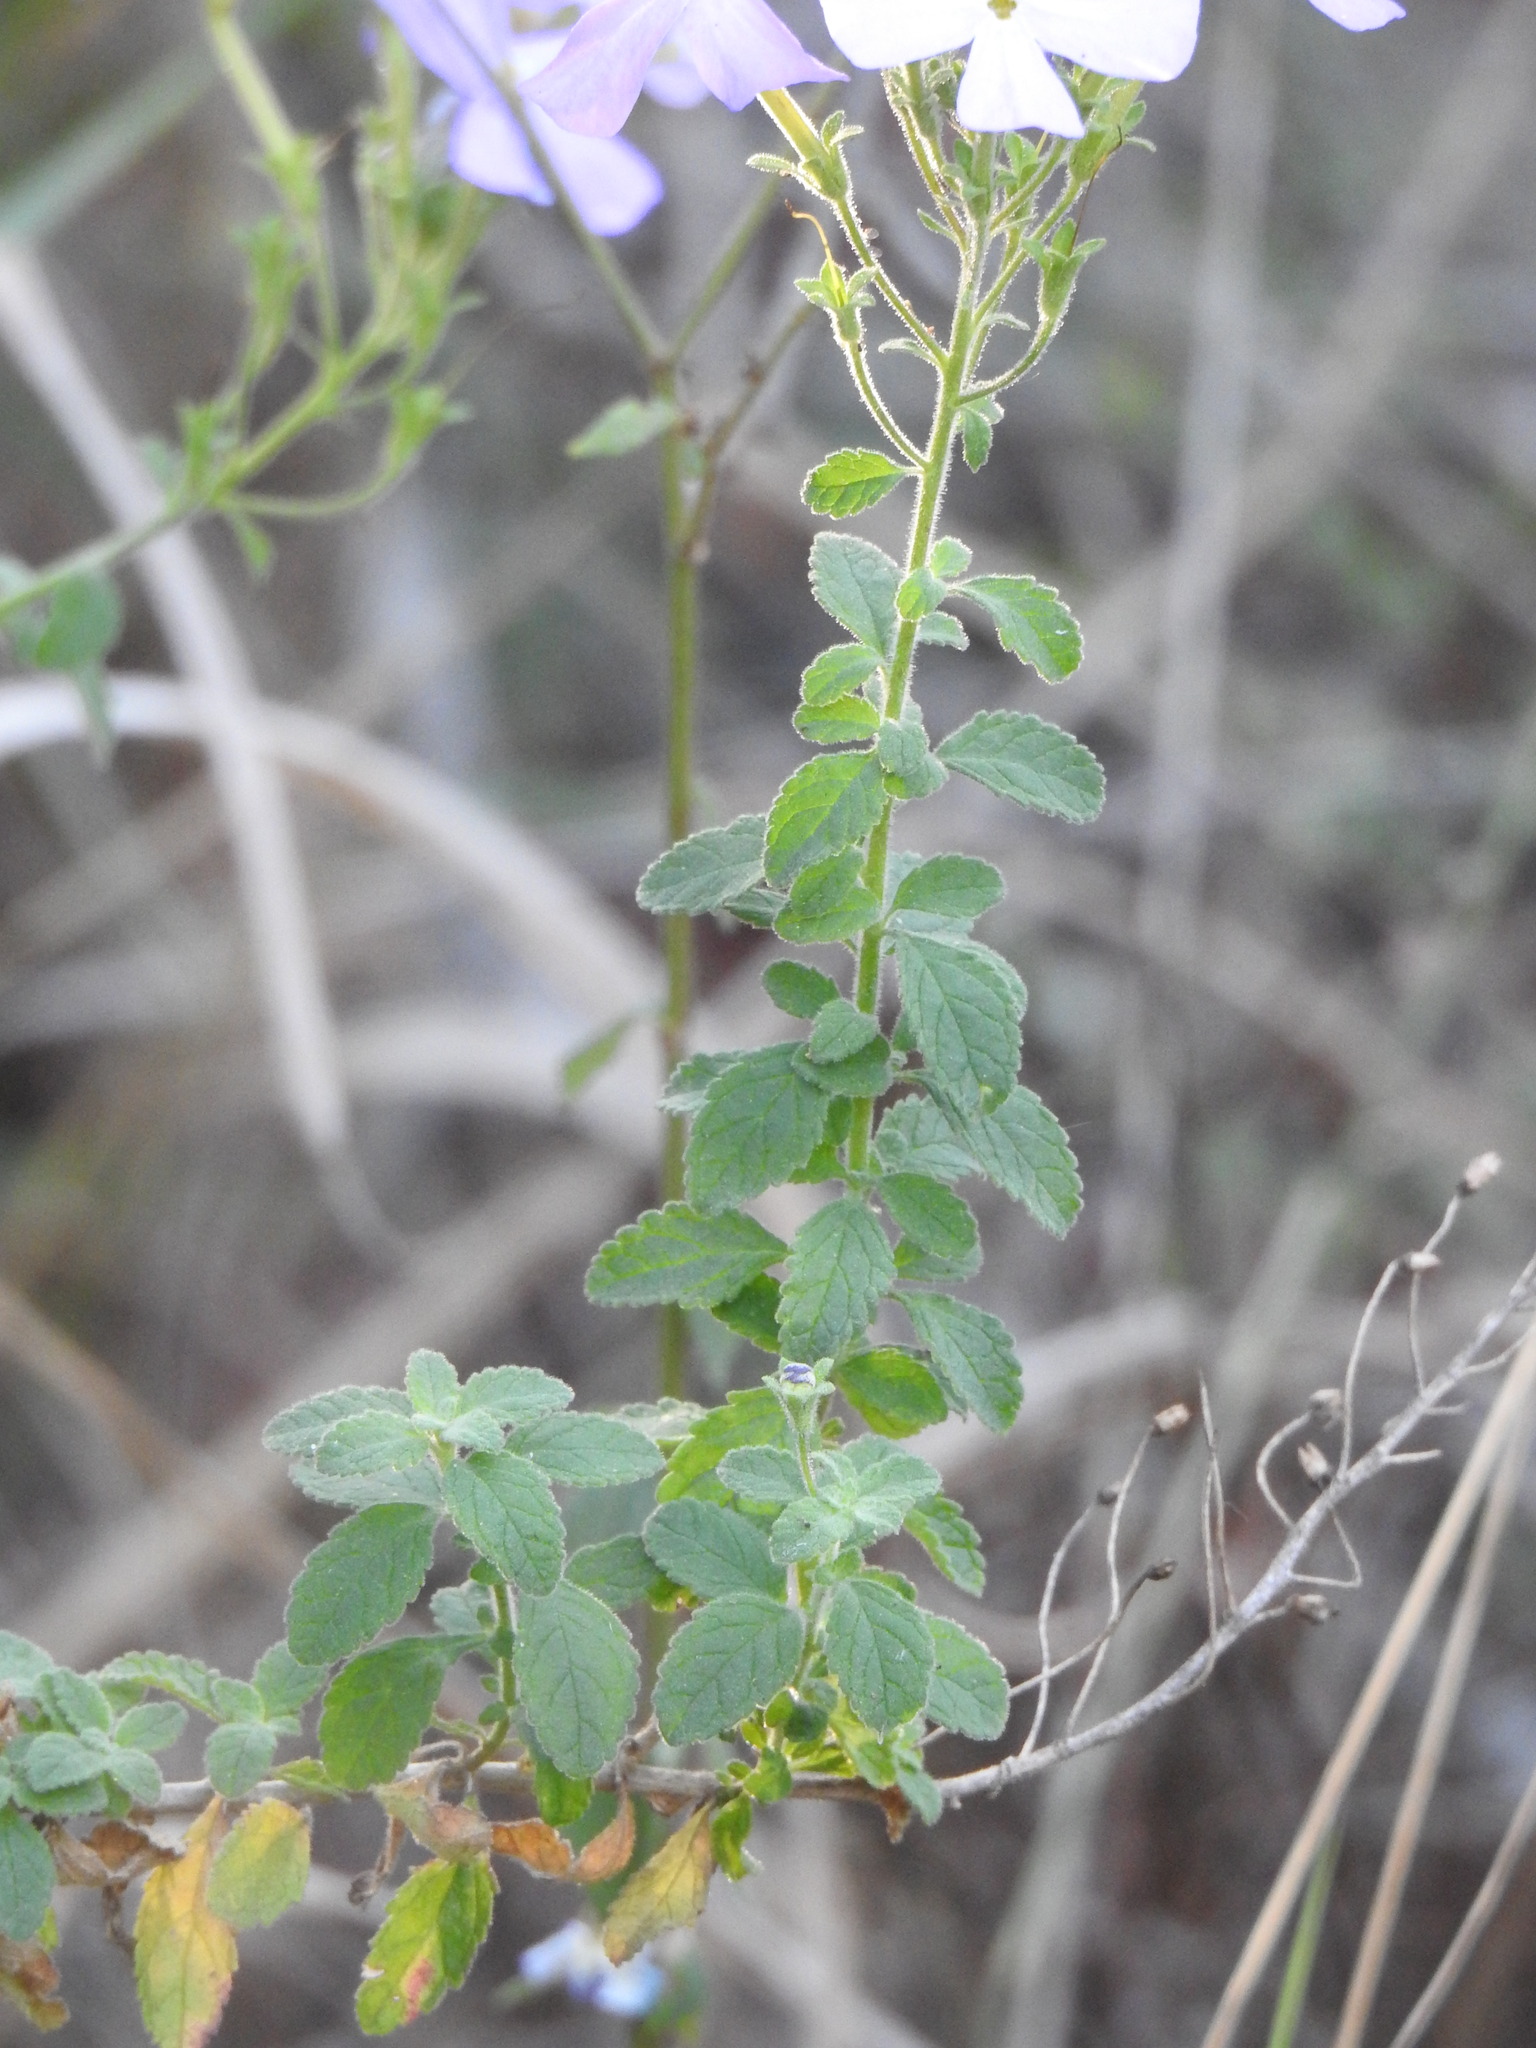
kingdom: Plantae
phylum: Tracheophyta
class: Magnoliopsida
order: Lamiales
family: Scrophulariaceae
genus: Jamesbrittenia
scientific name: Jamesbrittenia grandiflora
